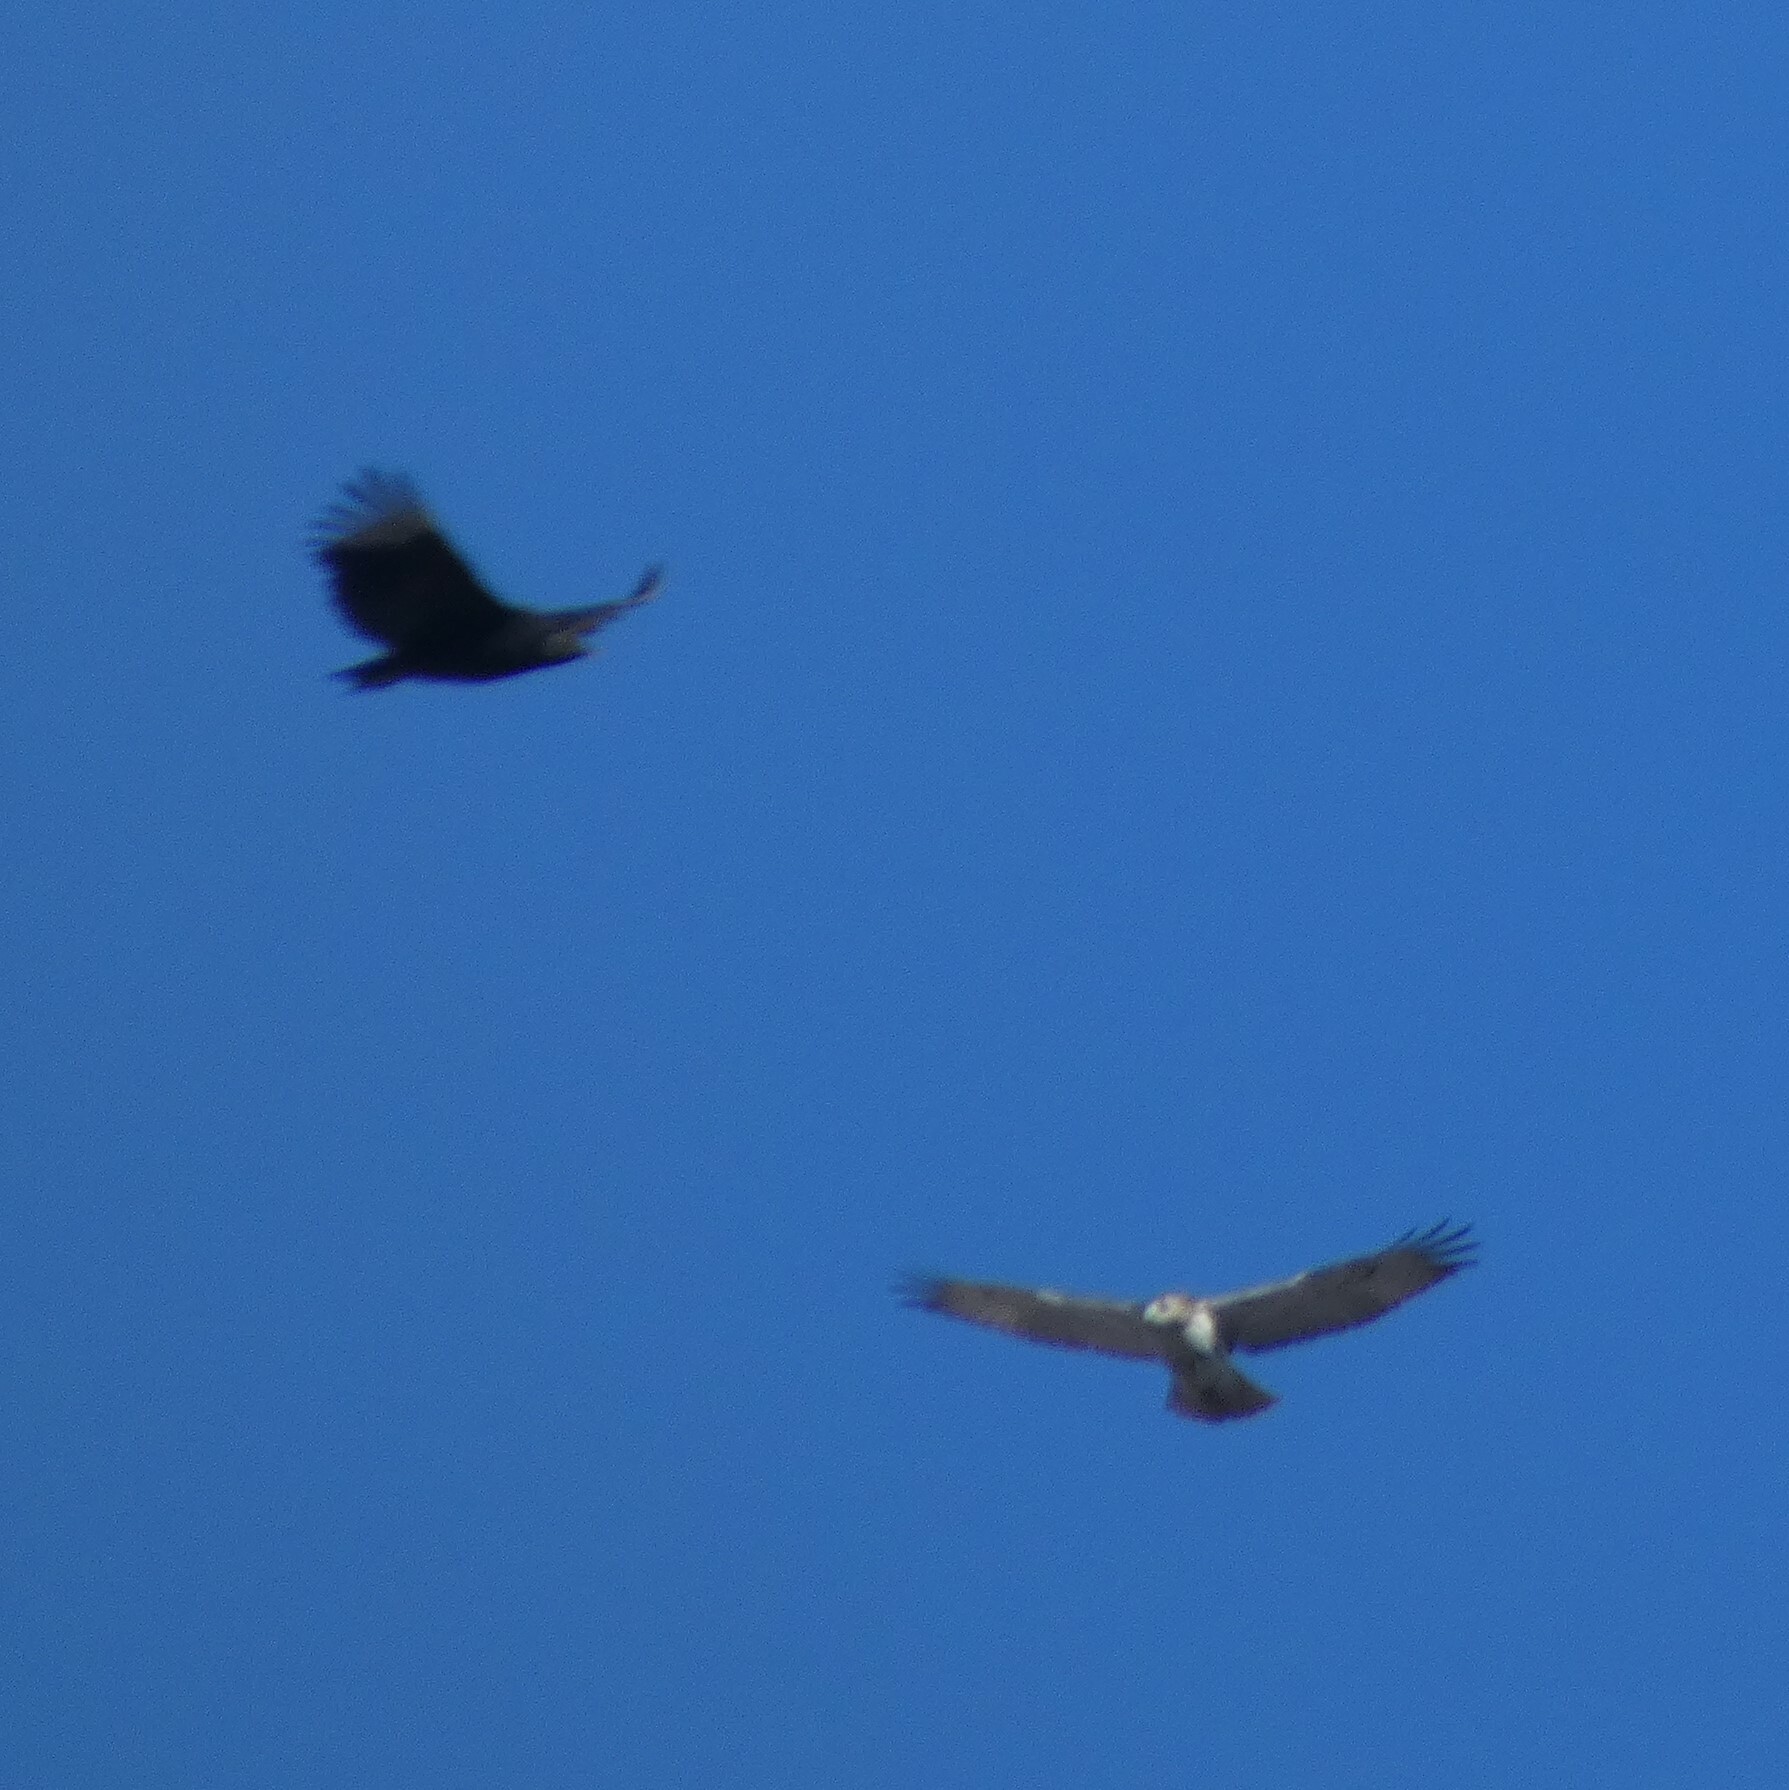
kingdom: Animalia
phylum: Chordata
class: Aves
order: Accipitriformes
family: Accipitridae
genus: Buteo
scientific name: Buteo jamaicensis
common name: Red-tailed hawk
